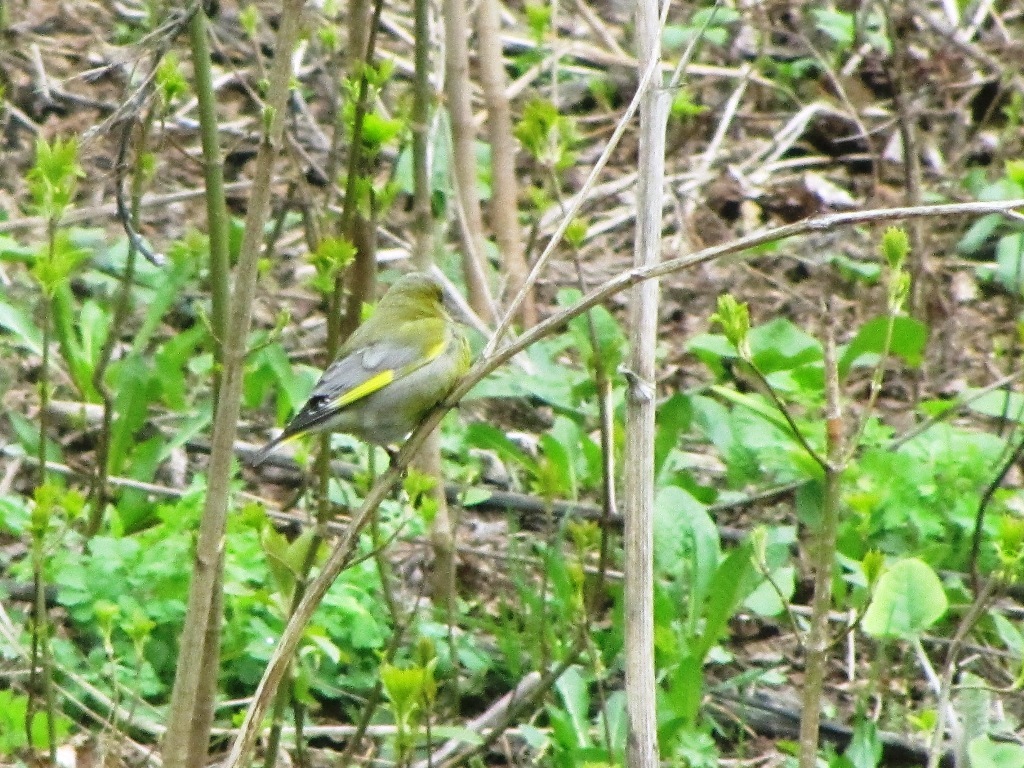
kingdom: Plantae
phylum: Tracheophyta
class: Liliopsida
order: Poales
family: Poaceae
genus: Chloris
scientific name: Chloris chloris
